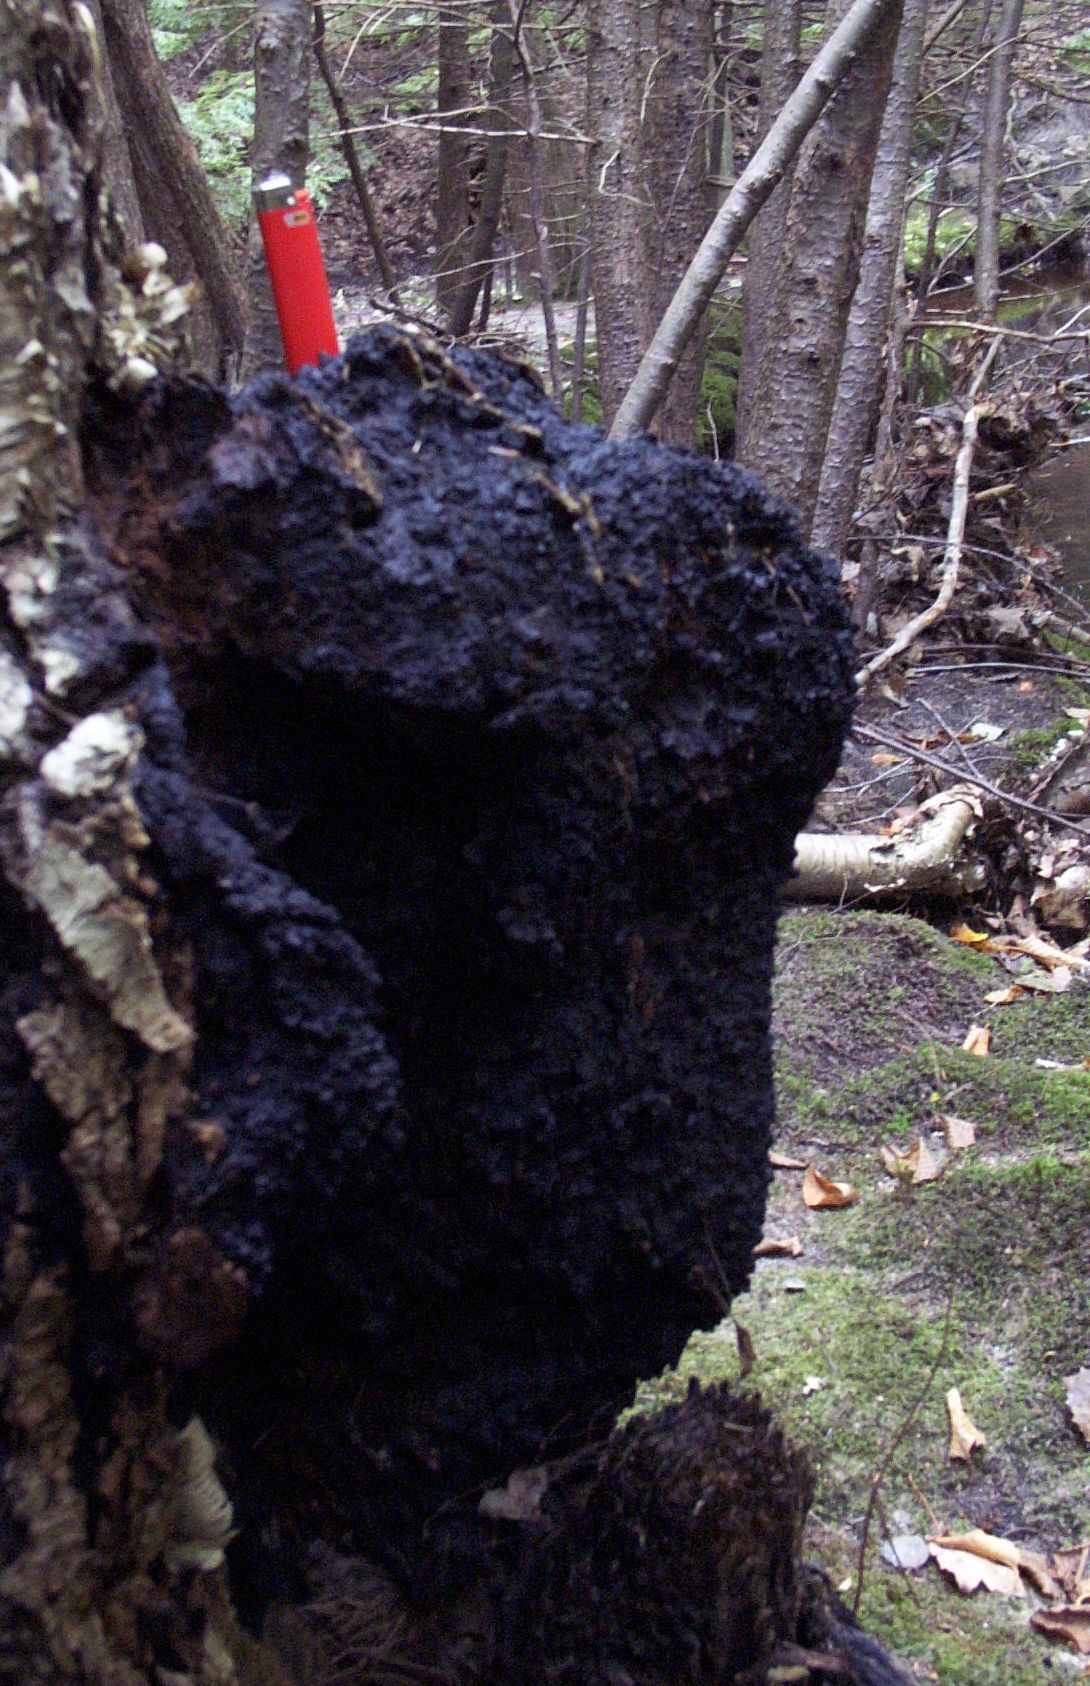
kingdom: Fungi
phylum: Basidiomycota
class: Agaricomycetes
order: Hymenochaetales
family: Hymenochaetaceae
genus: Inonotus
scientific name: Inonotus obliquus
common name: Chaga
